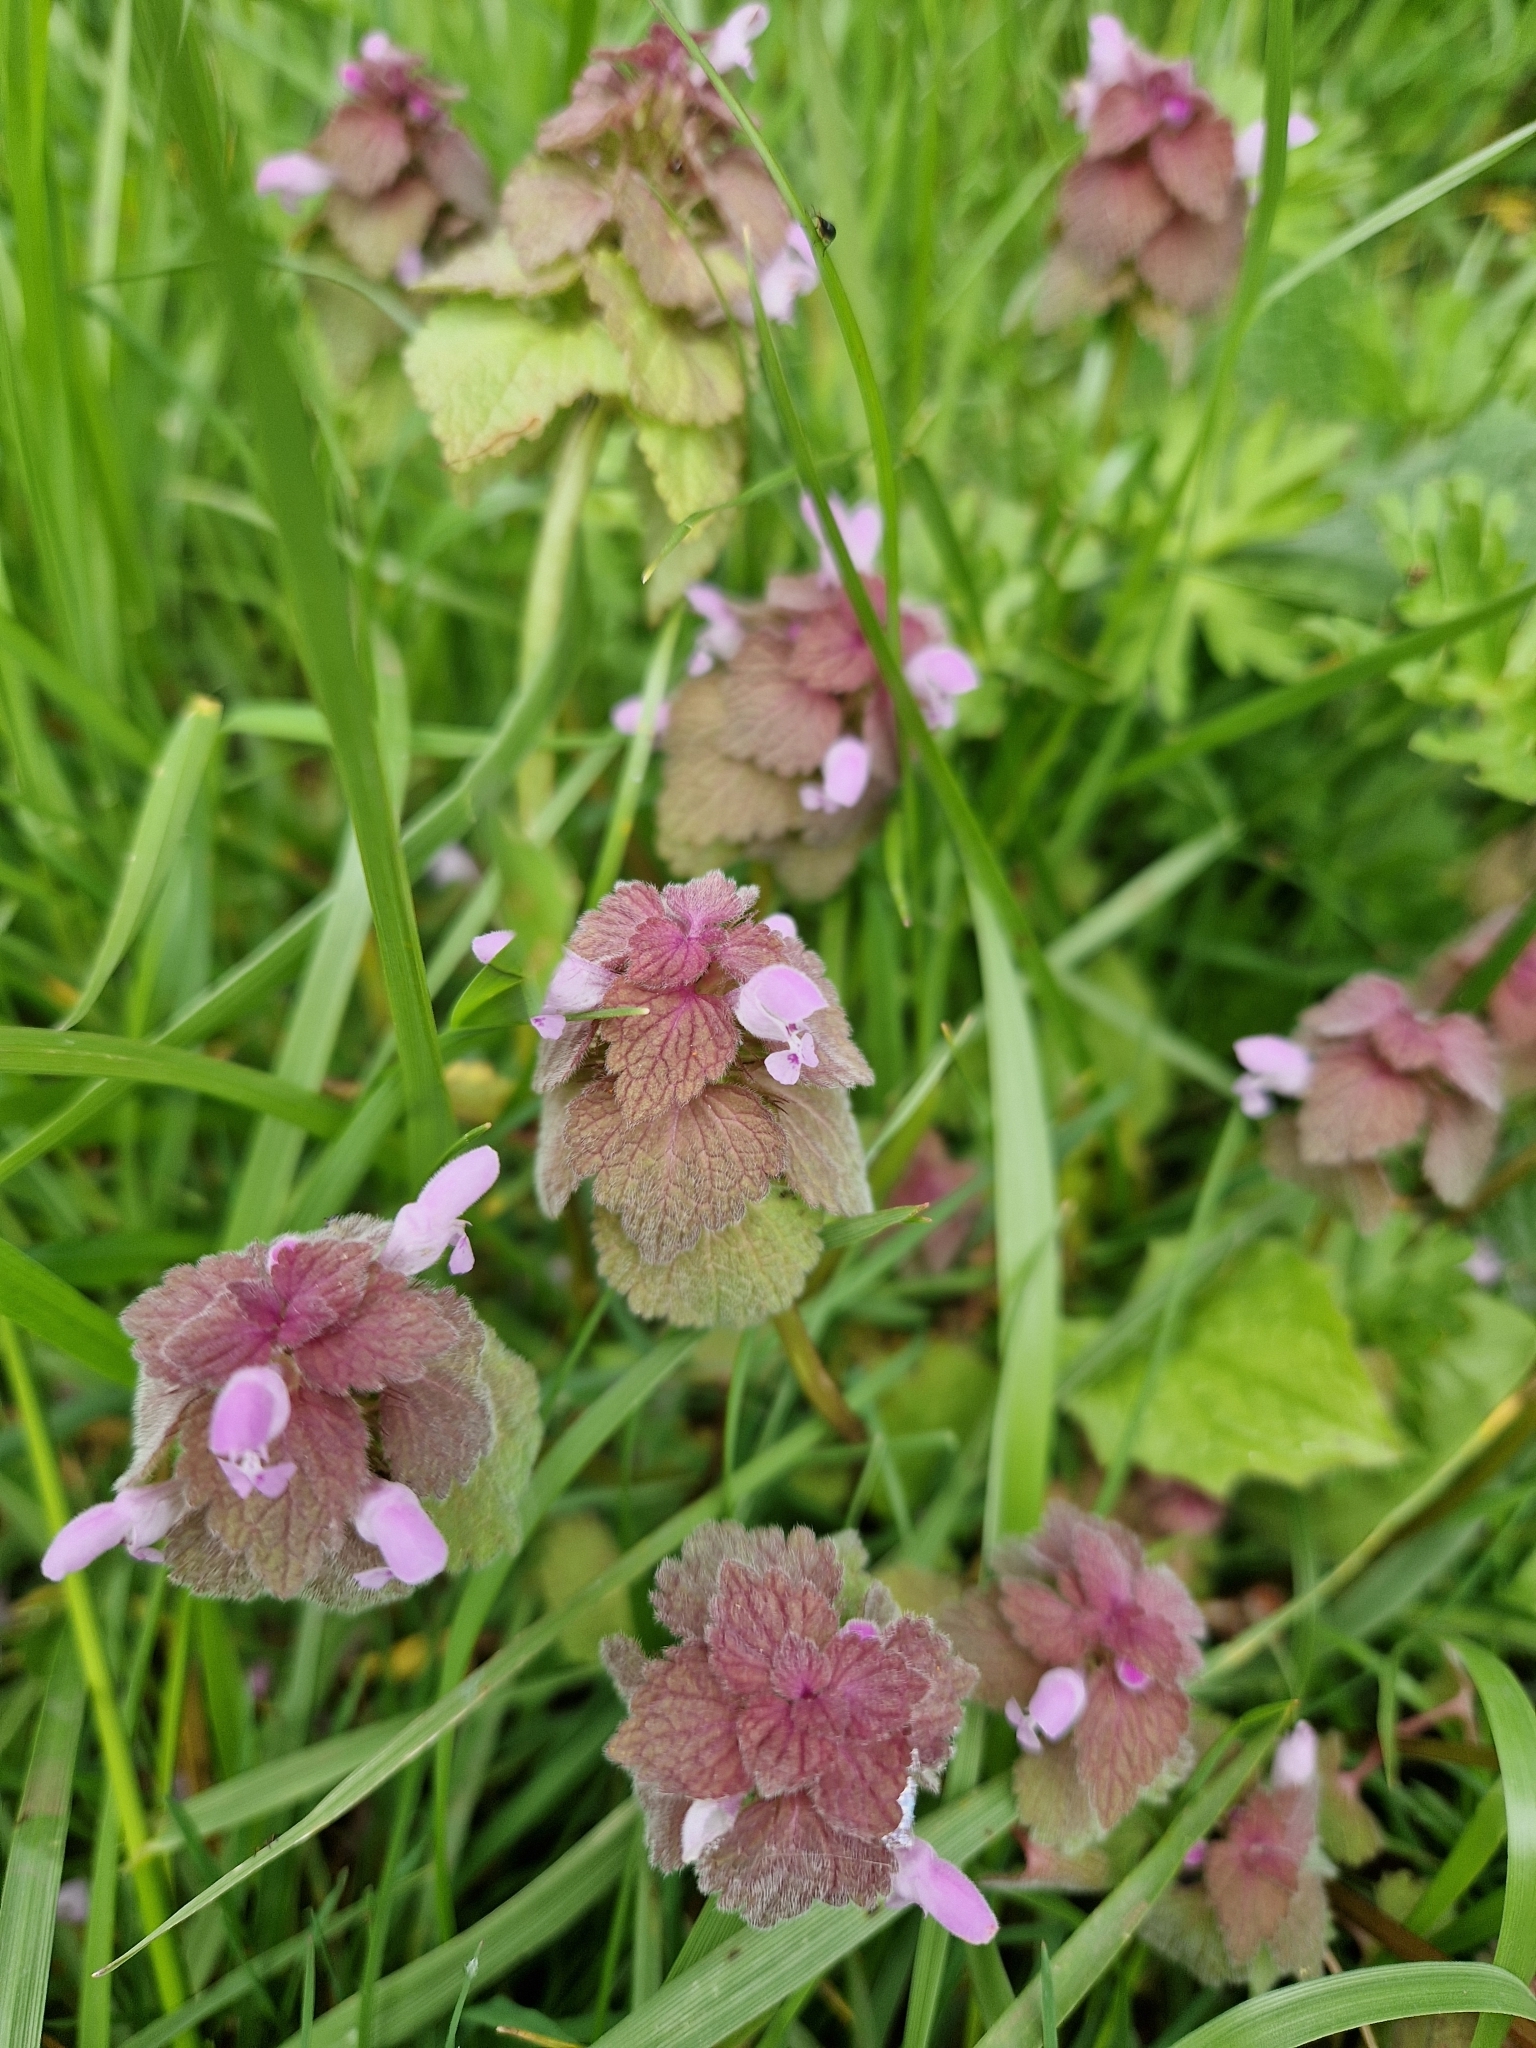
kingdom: Plantae
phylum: Tracheophyta
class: Magnoliopsida
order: Lamiales
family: Lamiaceae
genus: Lamium
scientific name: Lamium purpureum
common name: Red dead-nettle
